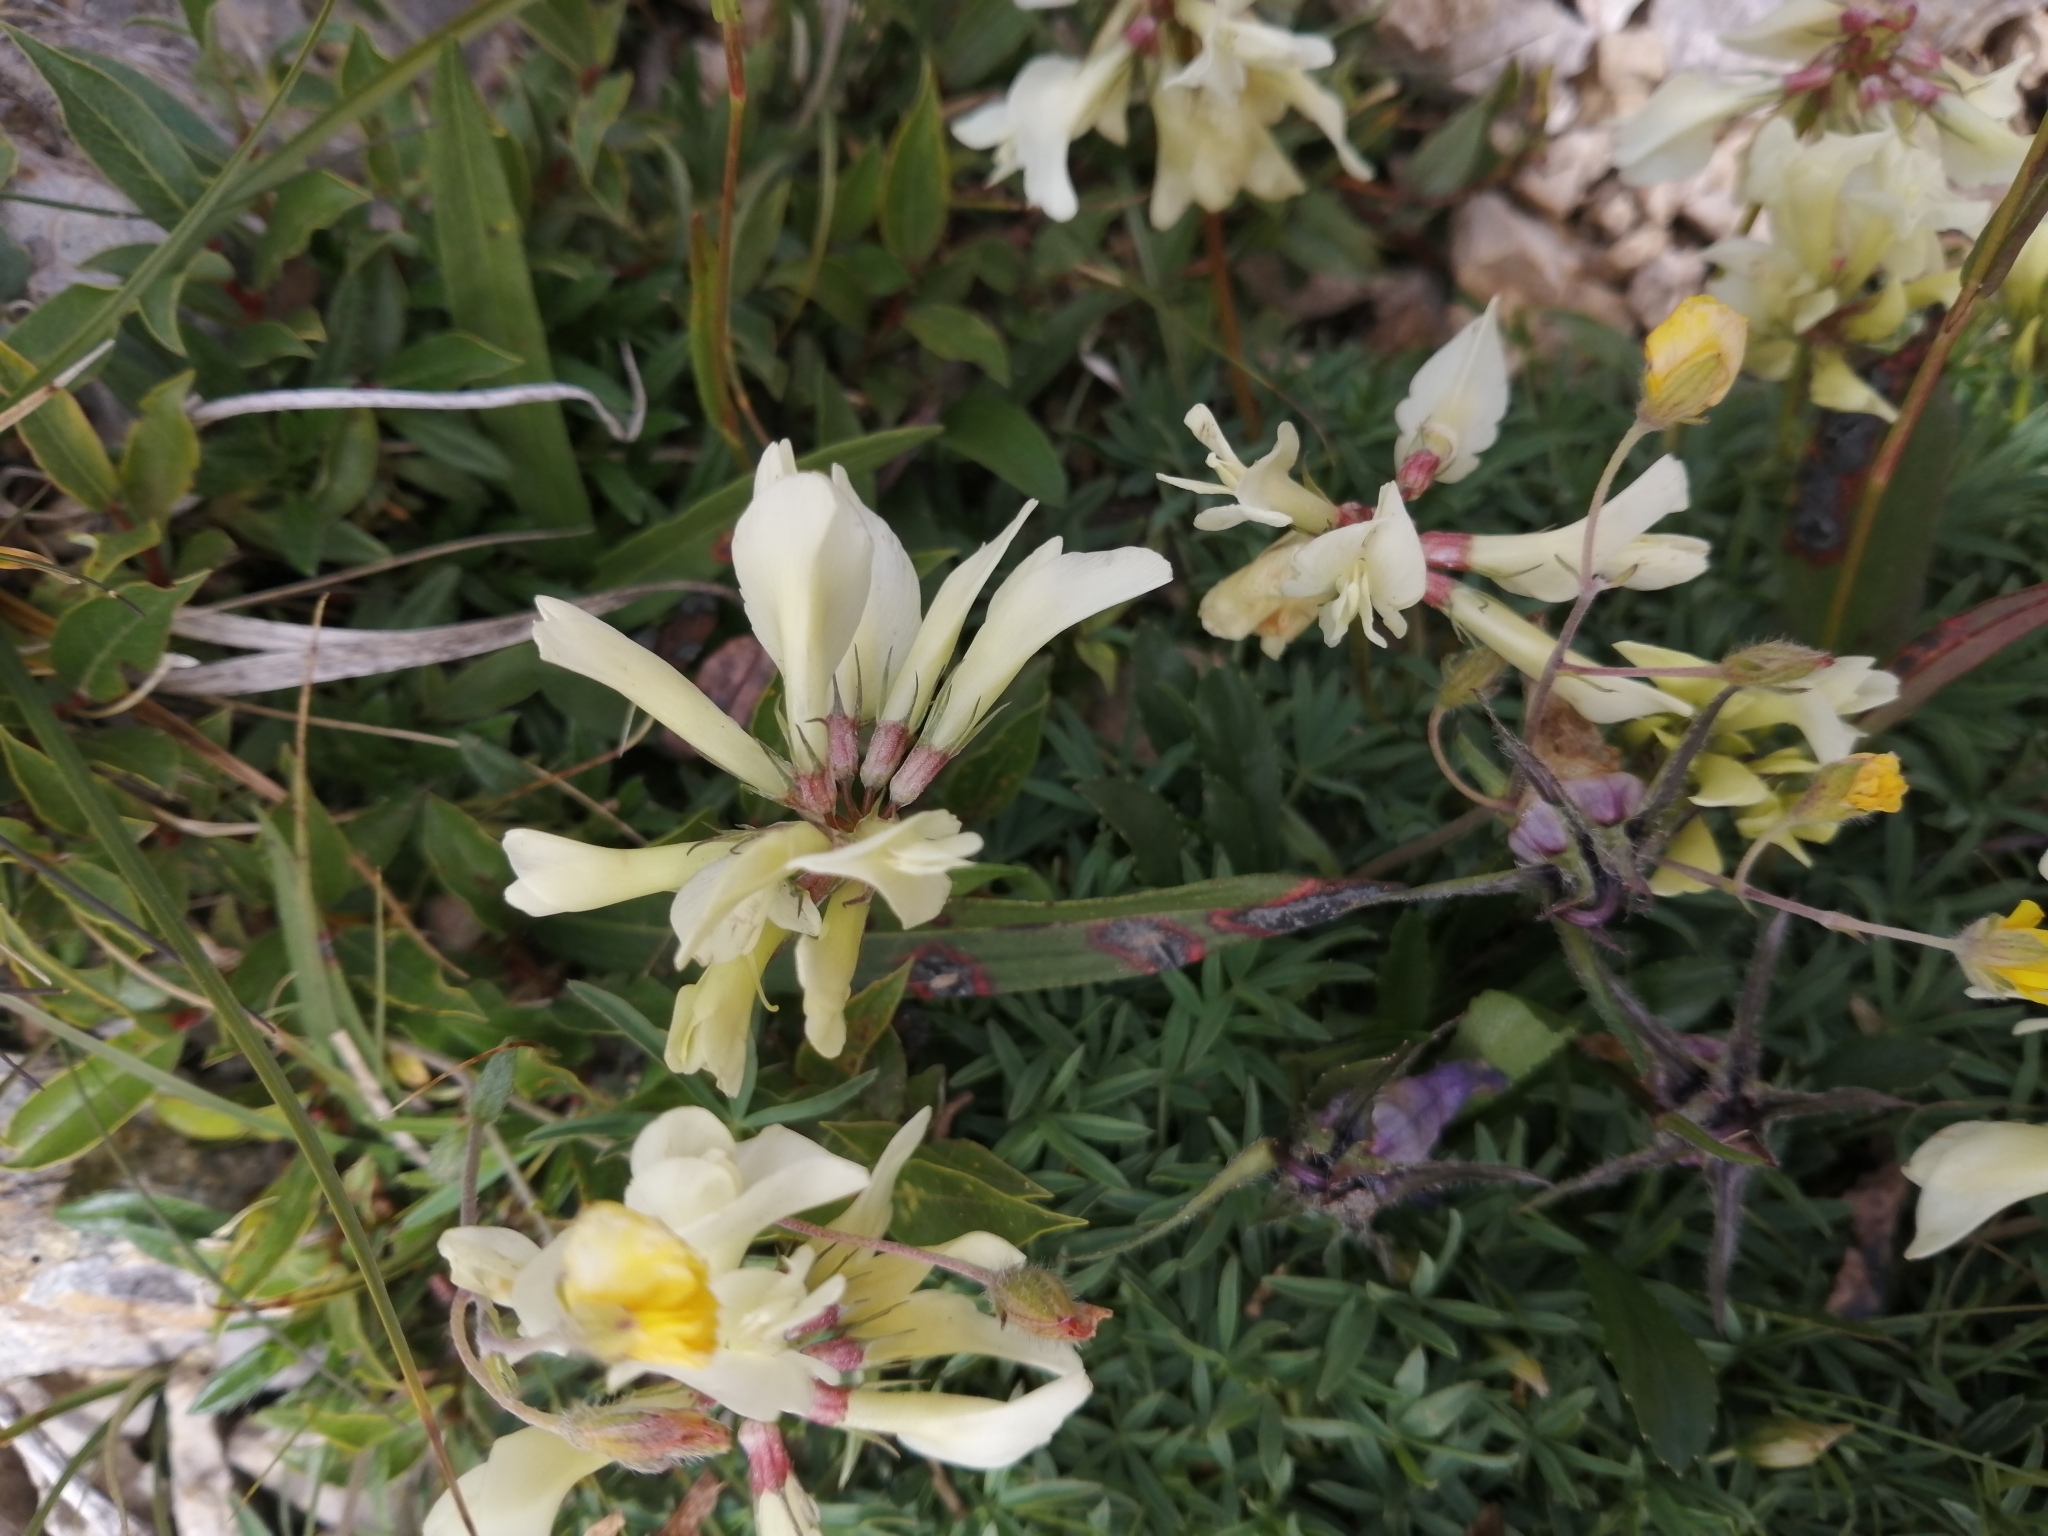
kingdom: Plantae
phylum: Tracheophyta
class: Magnoliopsida
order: Fabales
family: Fabaceae
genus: Trifolium
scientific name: Trifolium polyphyllum
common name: Many-leaf clover
